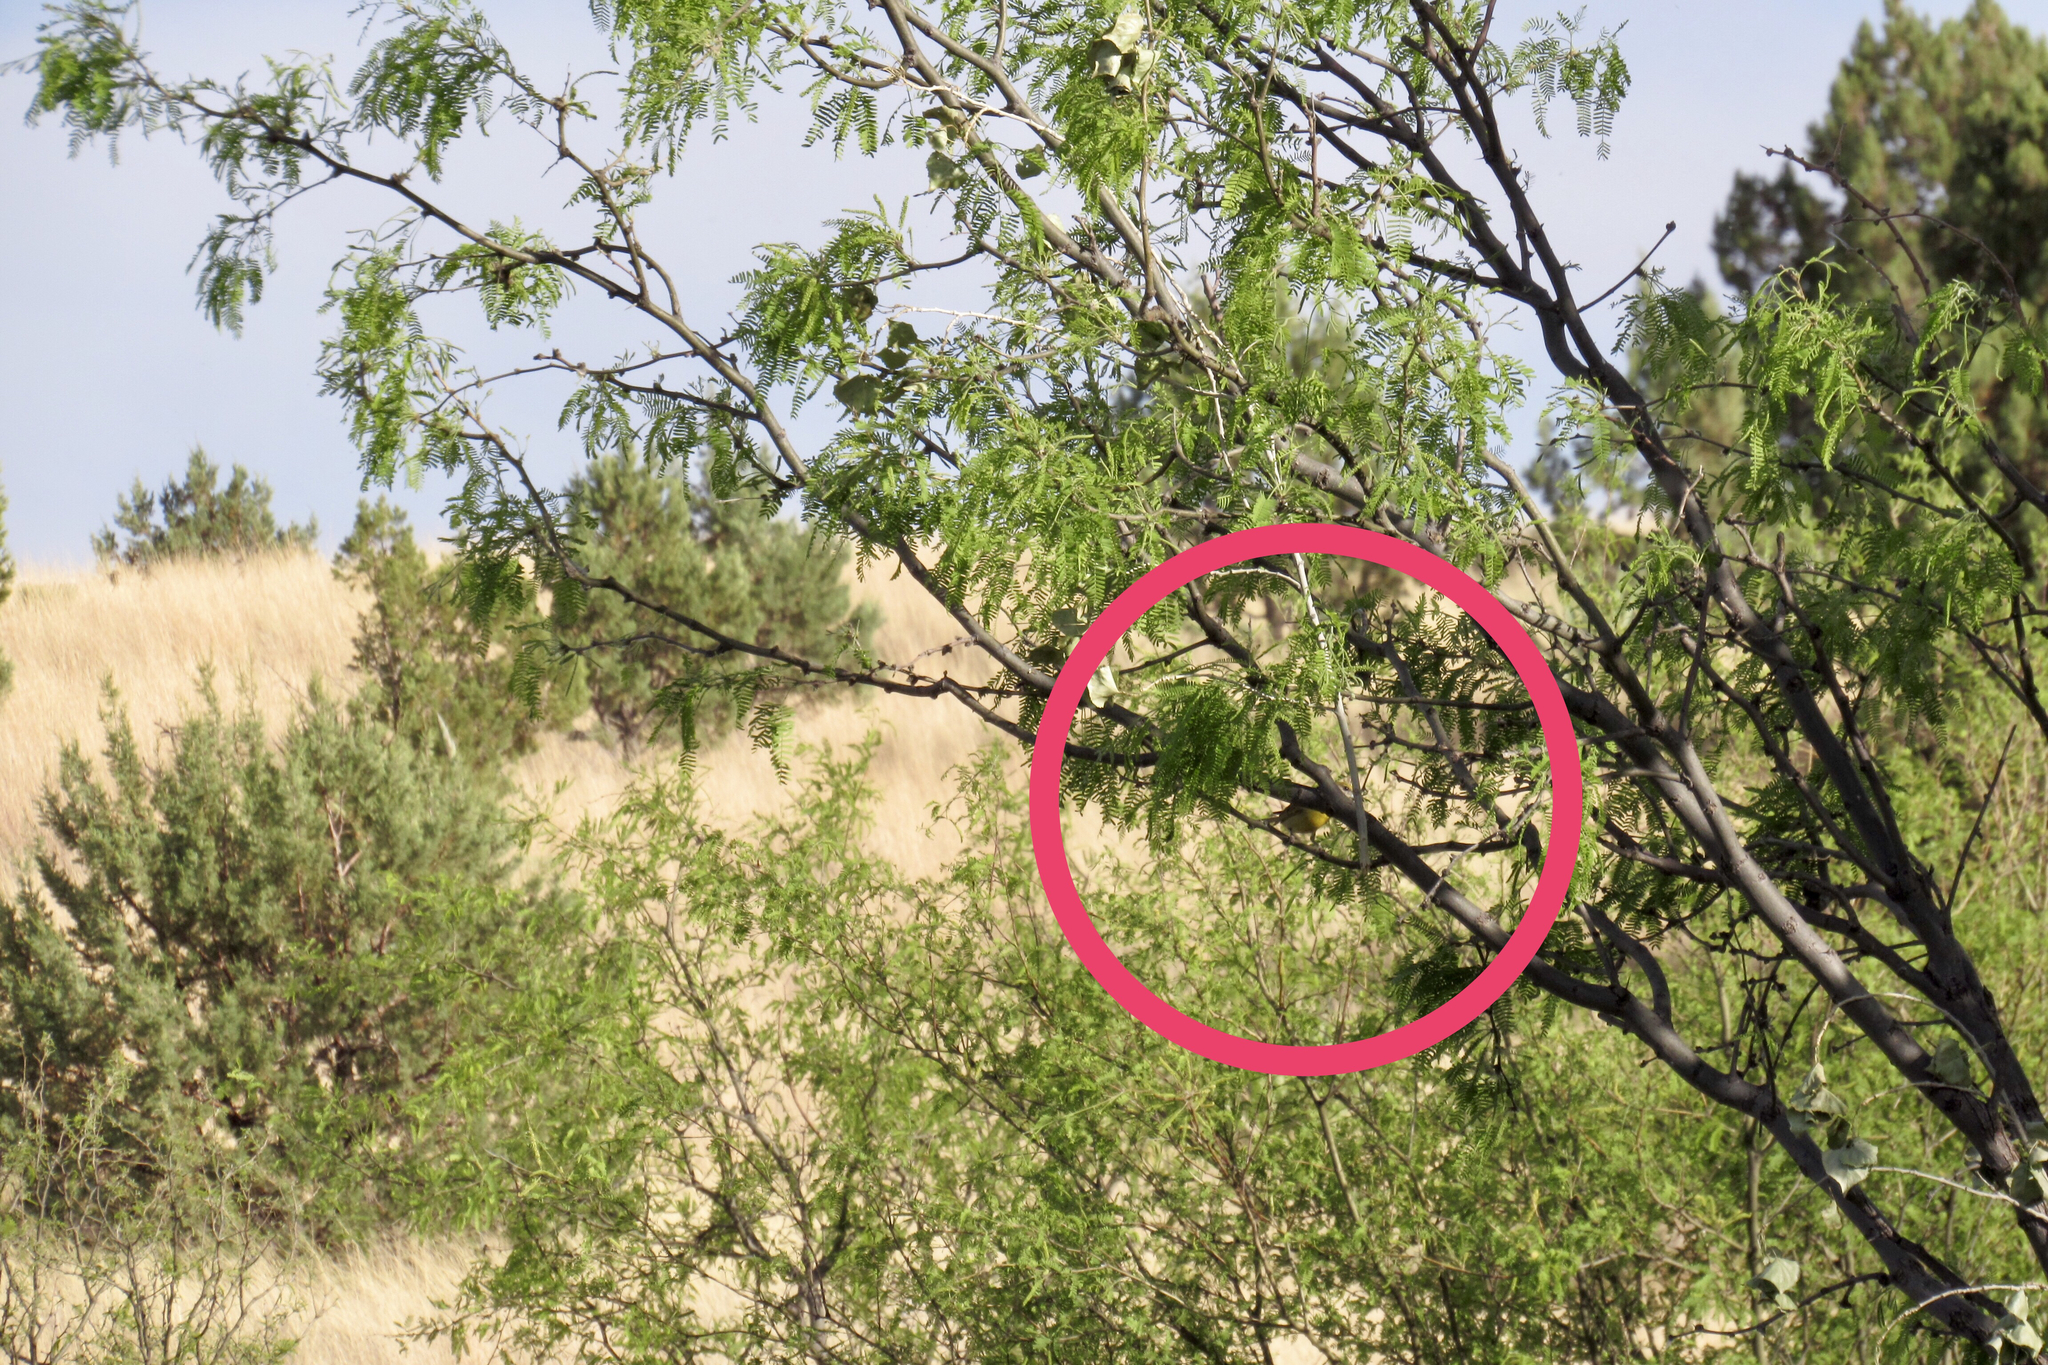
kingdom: Animalia
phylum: Chordata
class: Aves
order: Passeriformes
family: Cardinalidae
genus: Piranga
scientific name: Piranga flava
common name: Red tanager
